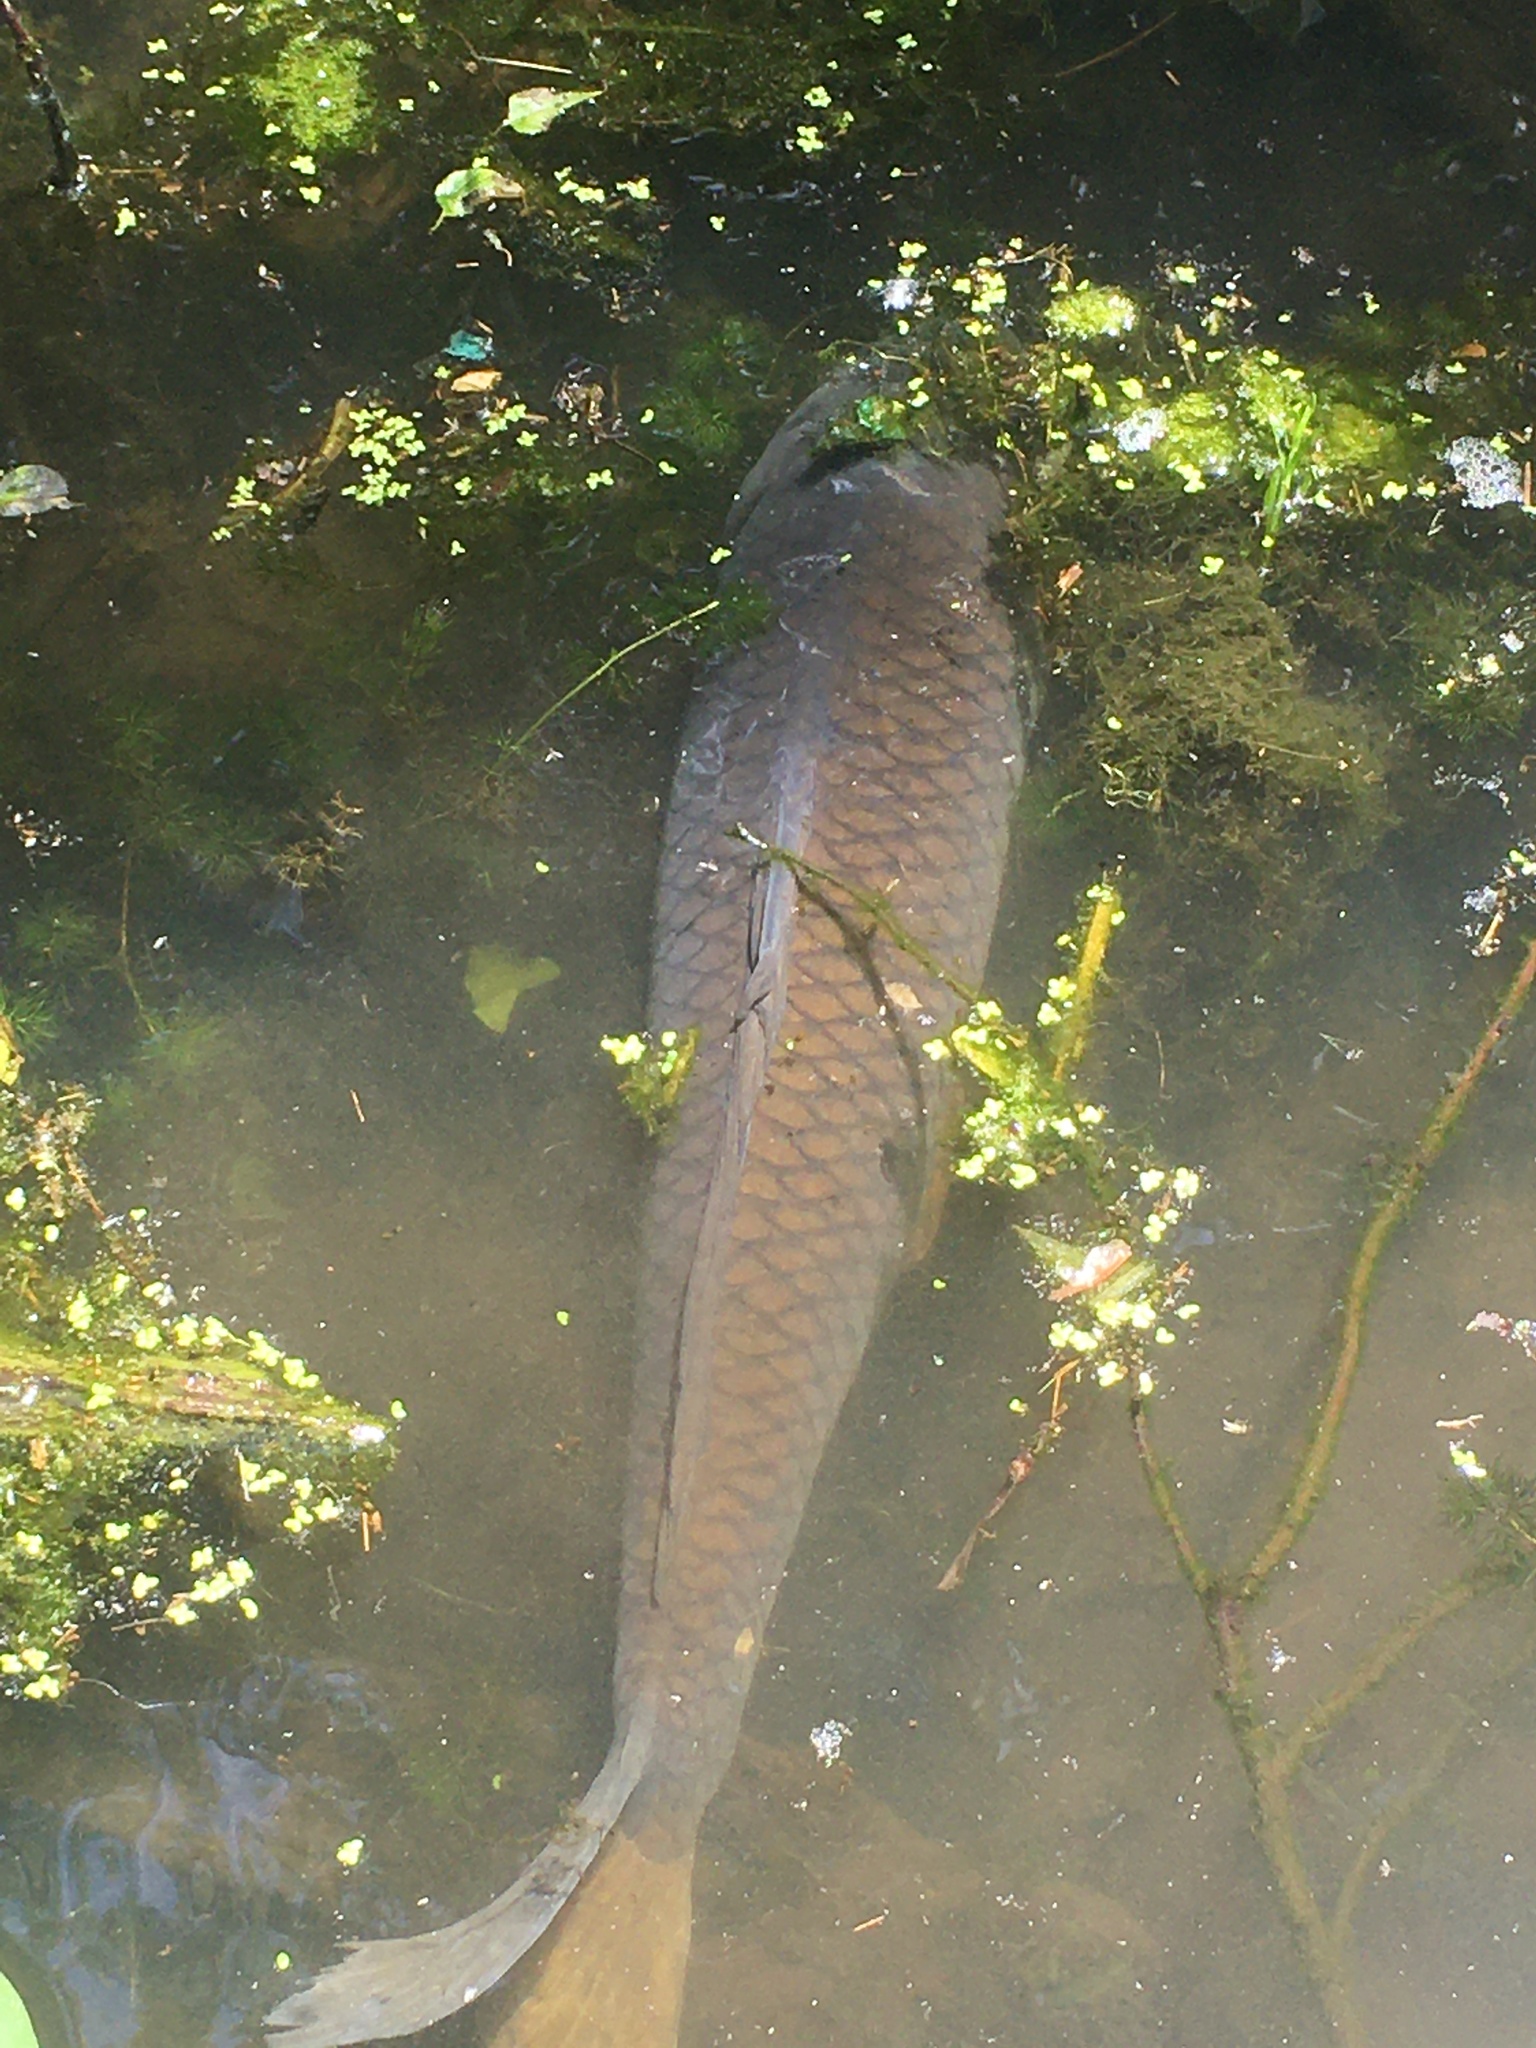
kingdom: Animalia
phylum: Chordata
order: Cypriniformes
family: Cyprinidae
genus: Cyprinus
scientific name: Cyprinus carpio
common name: Common carp
